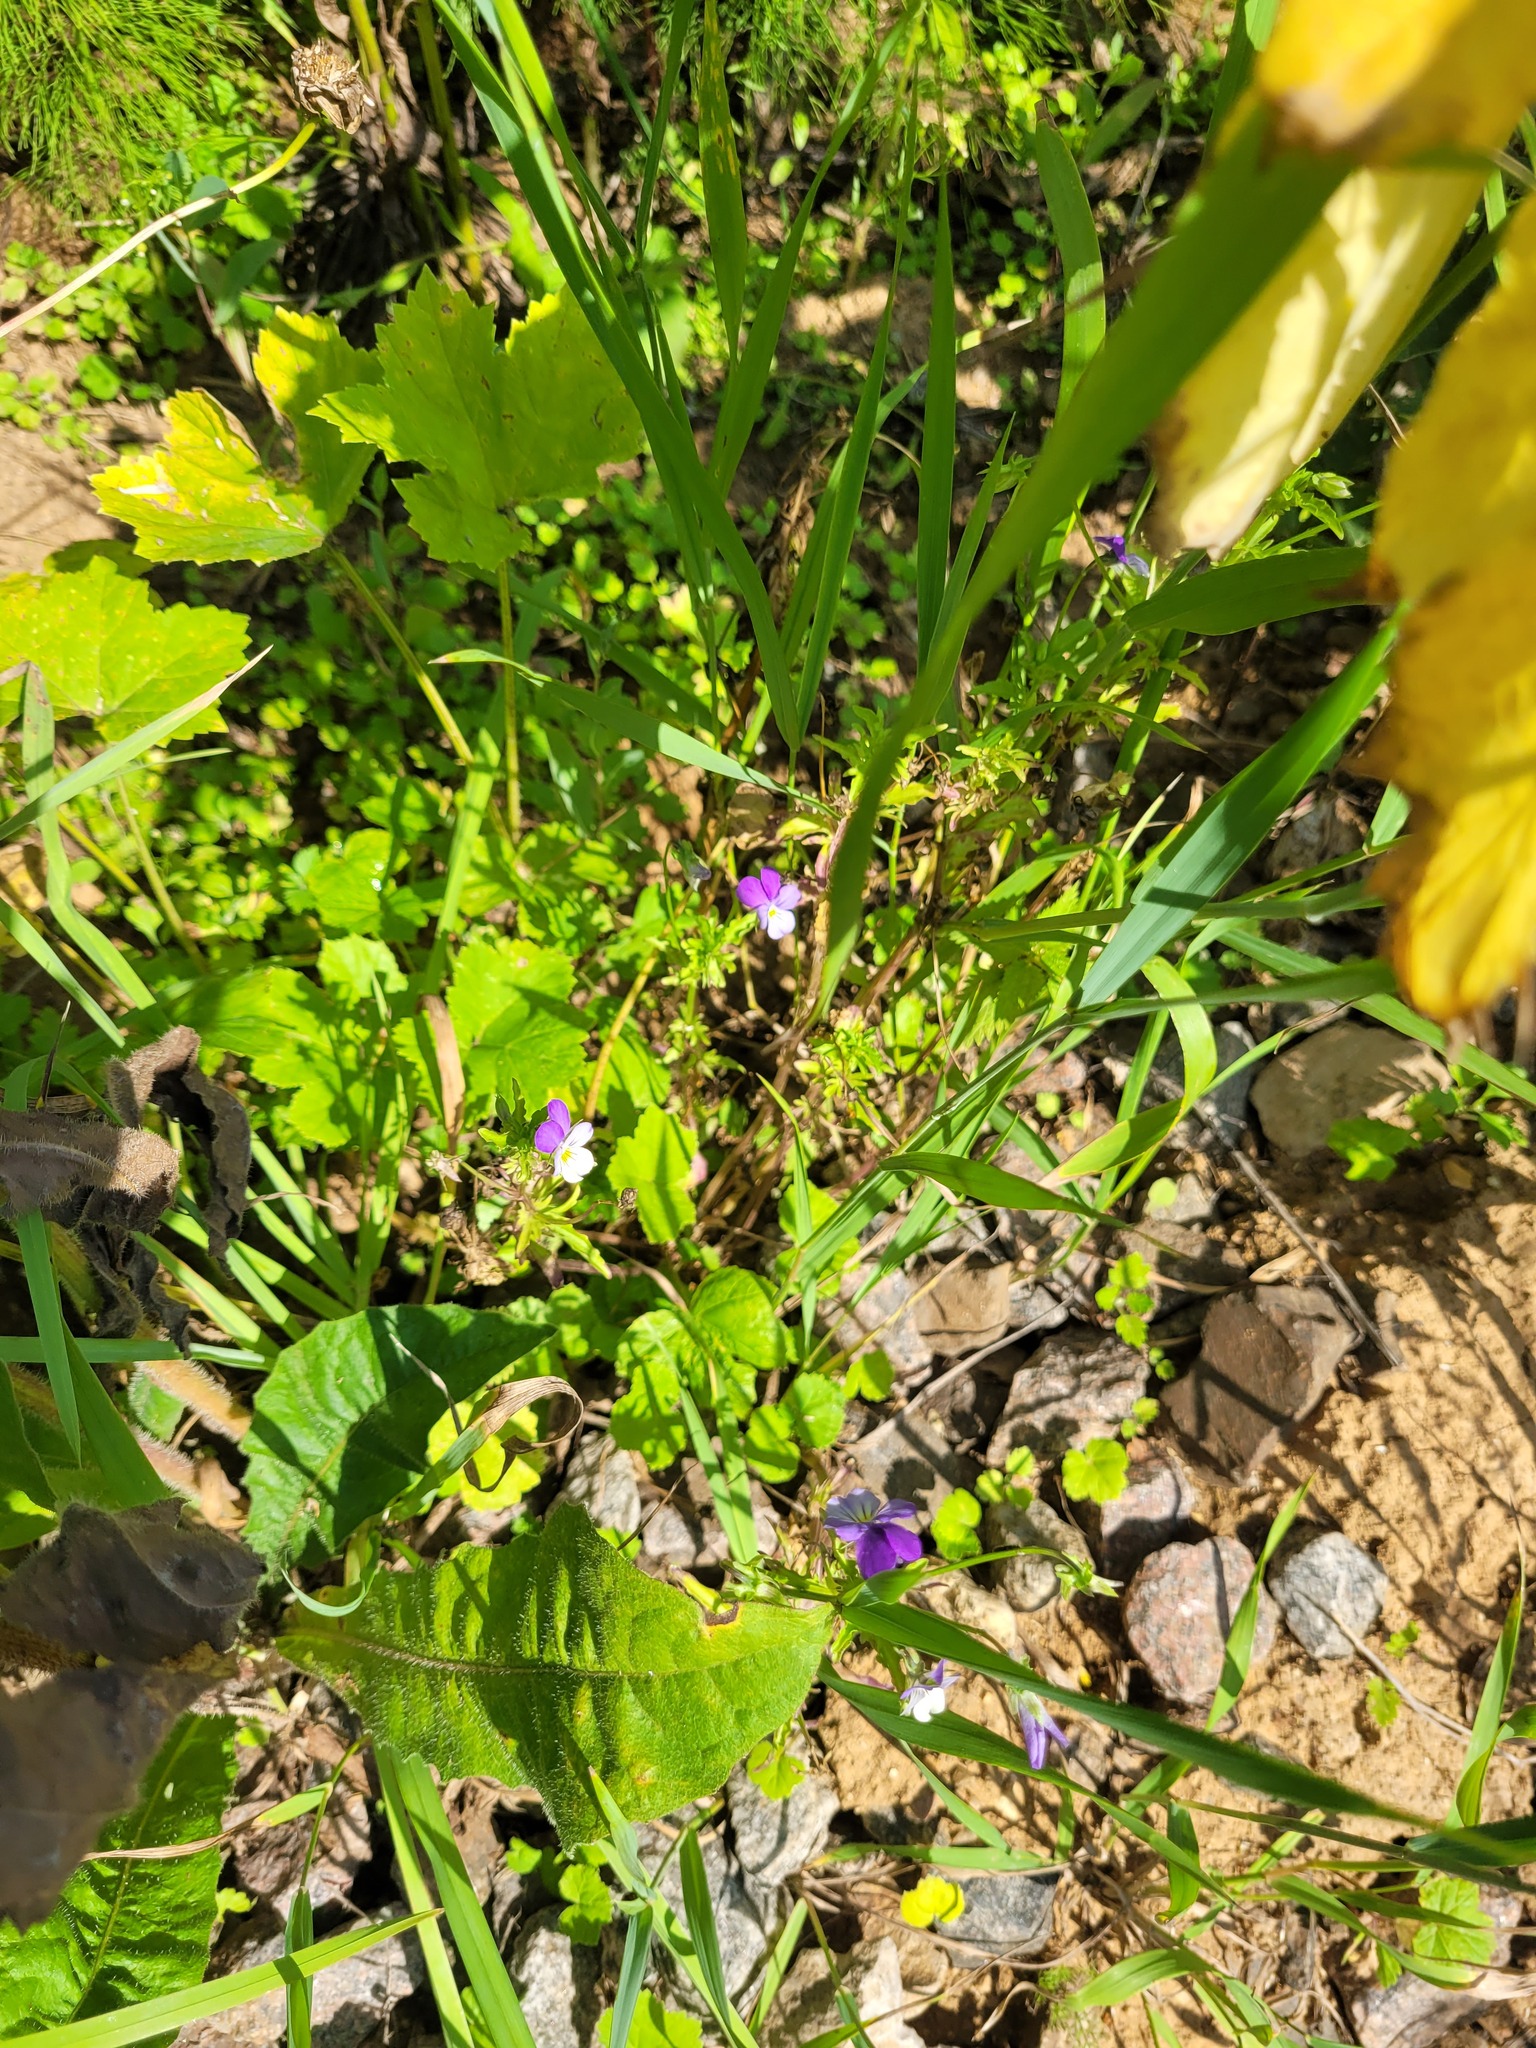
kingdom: Plantae
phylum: Tracheophyta
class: Magnoliopsida
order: Malpighiales
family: Violaceae
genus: Viola
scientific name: Viola tricolor
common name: Pansy
